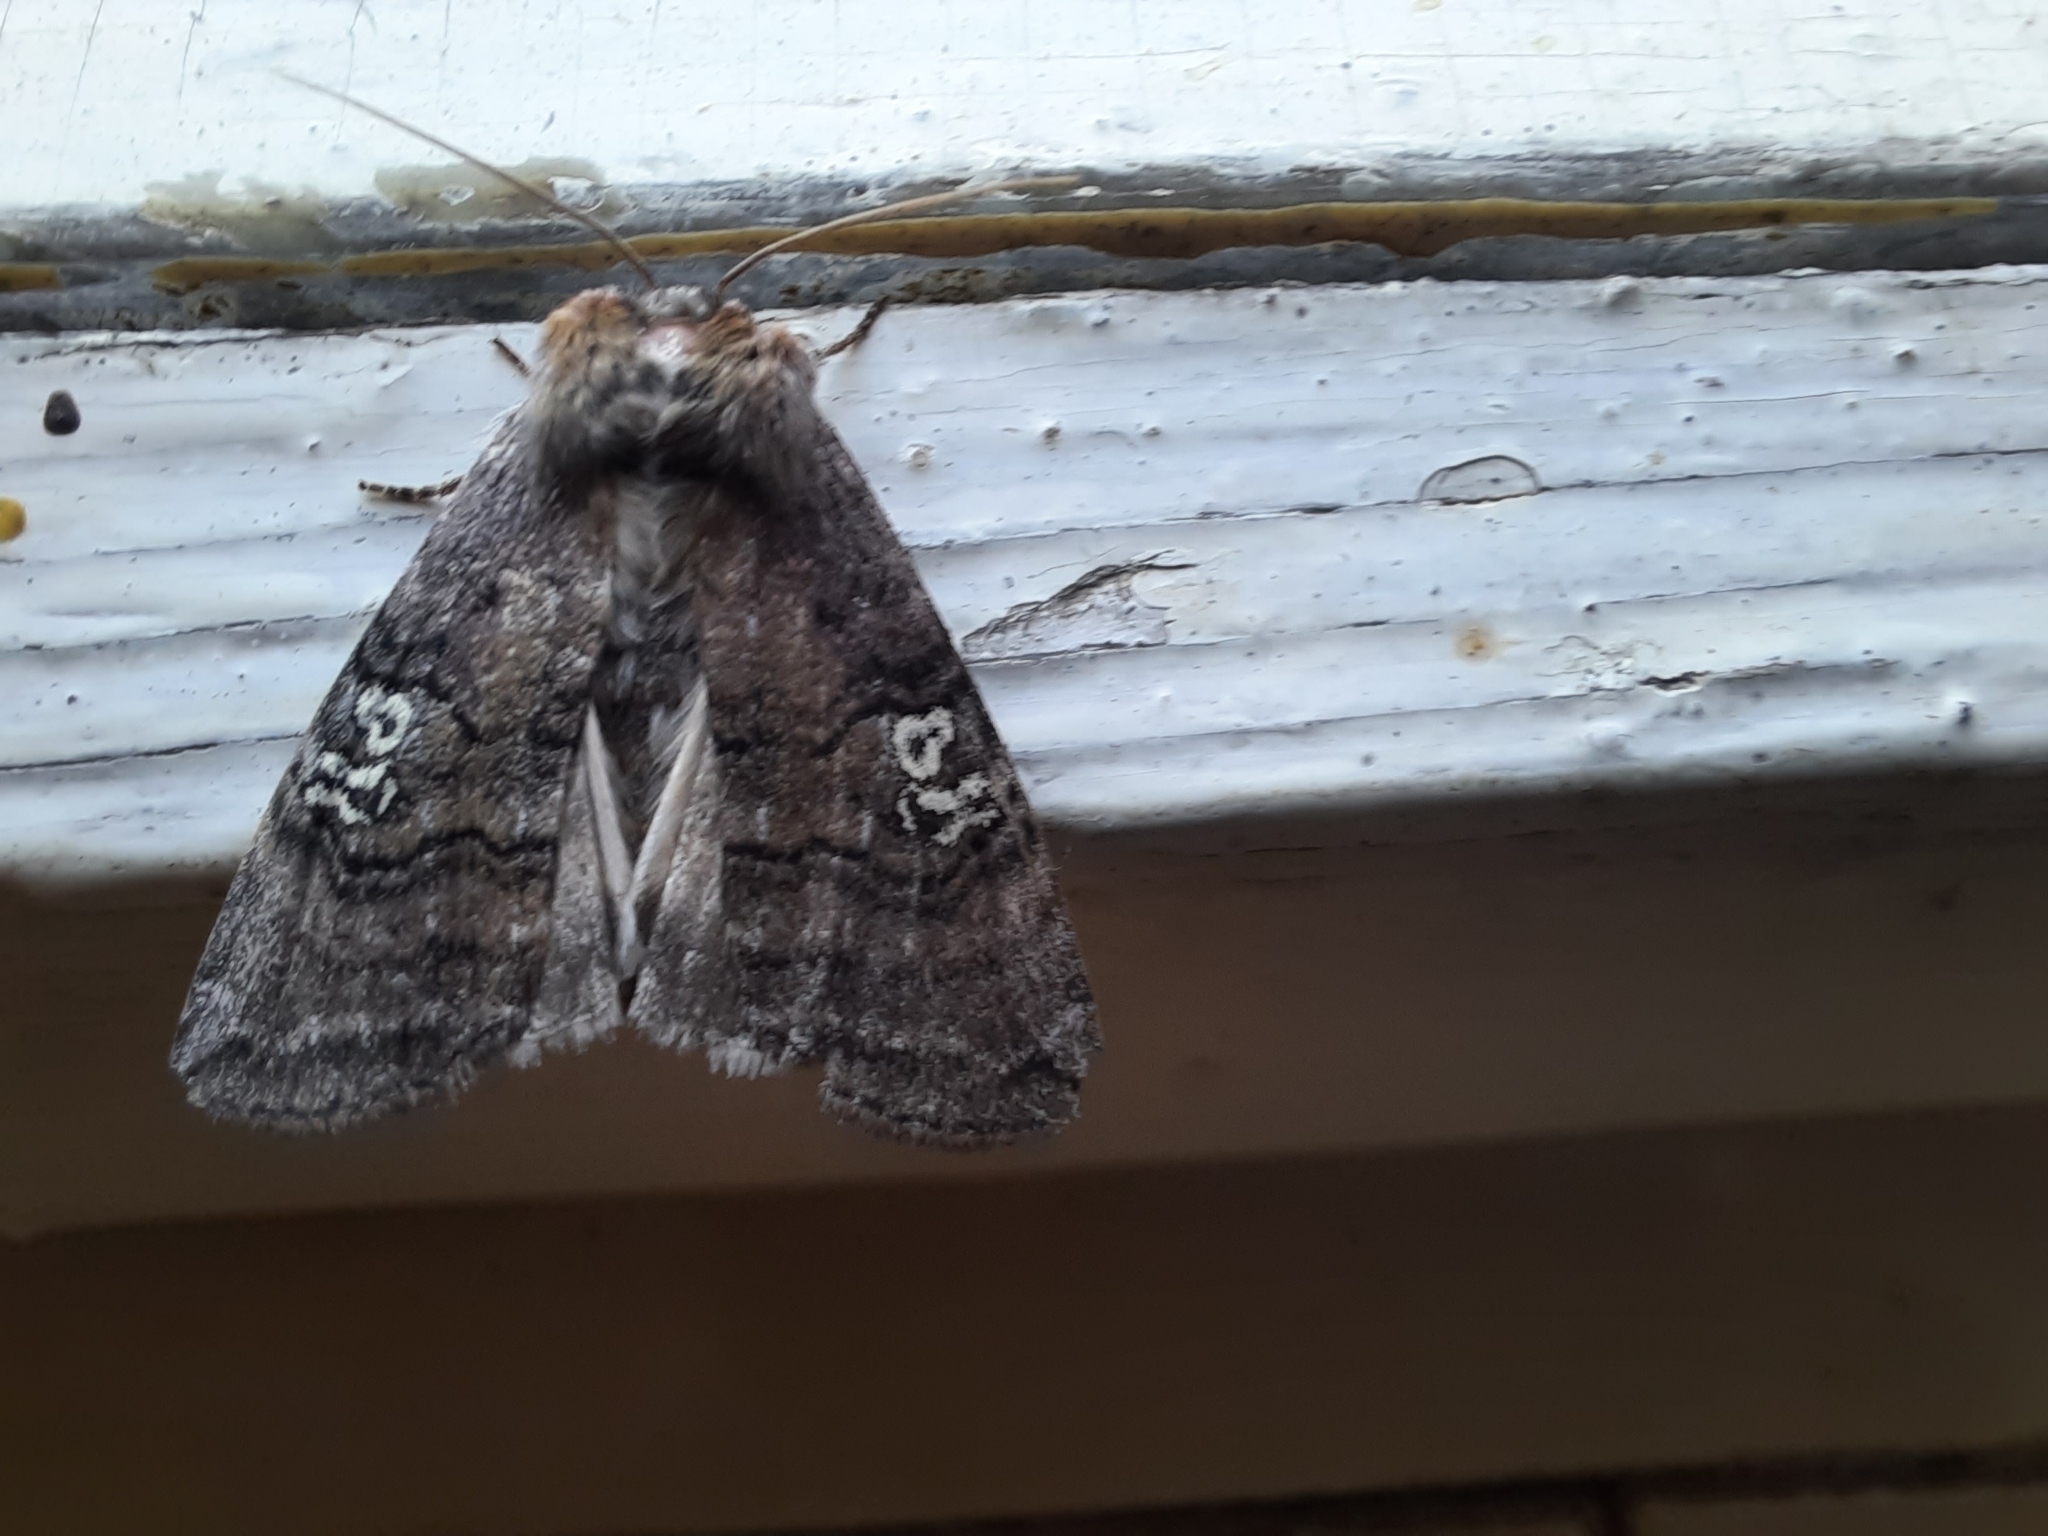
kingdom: Animalia
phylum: Arthropoda
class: Insecta
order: Lepidoptera
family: Drepanidae
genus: Tethea
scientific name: Tethea or
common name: Poplar lutestring
